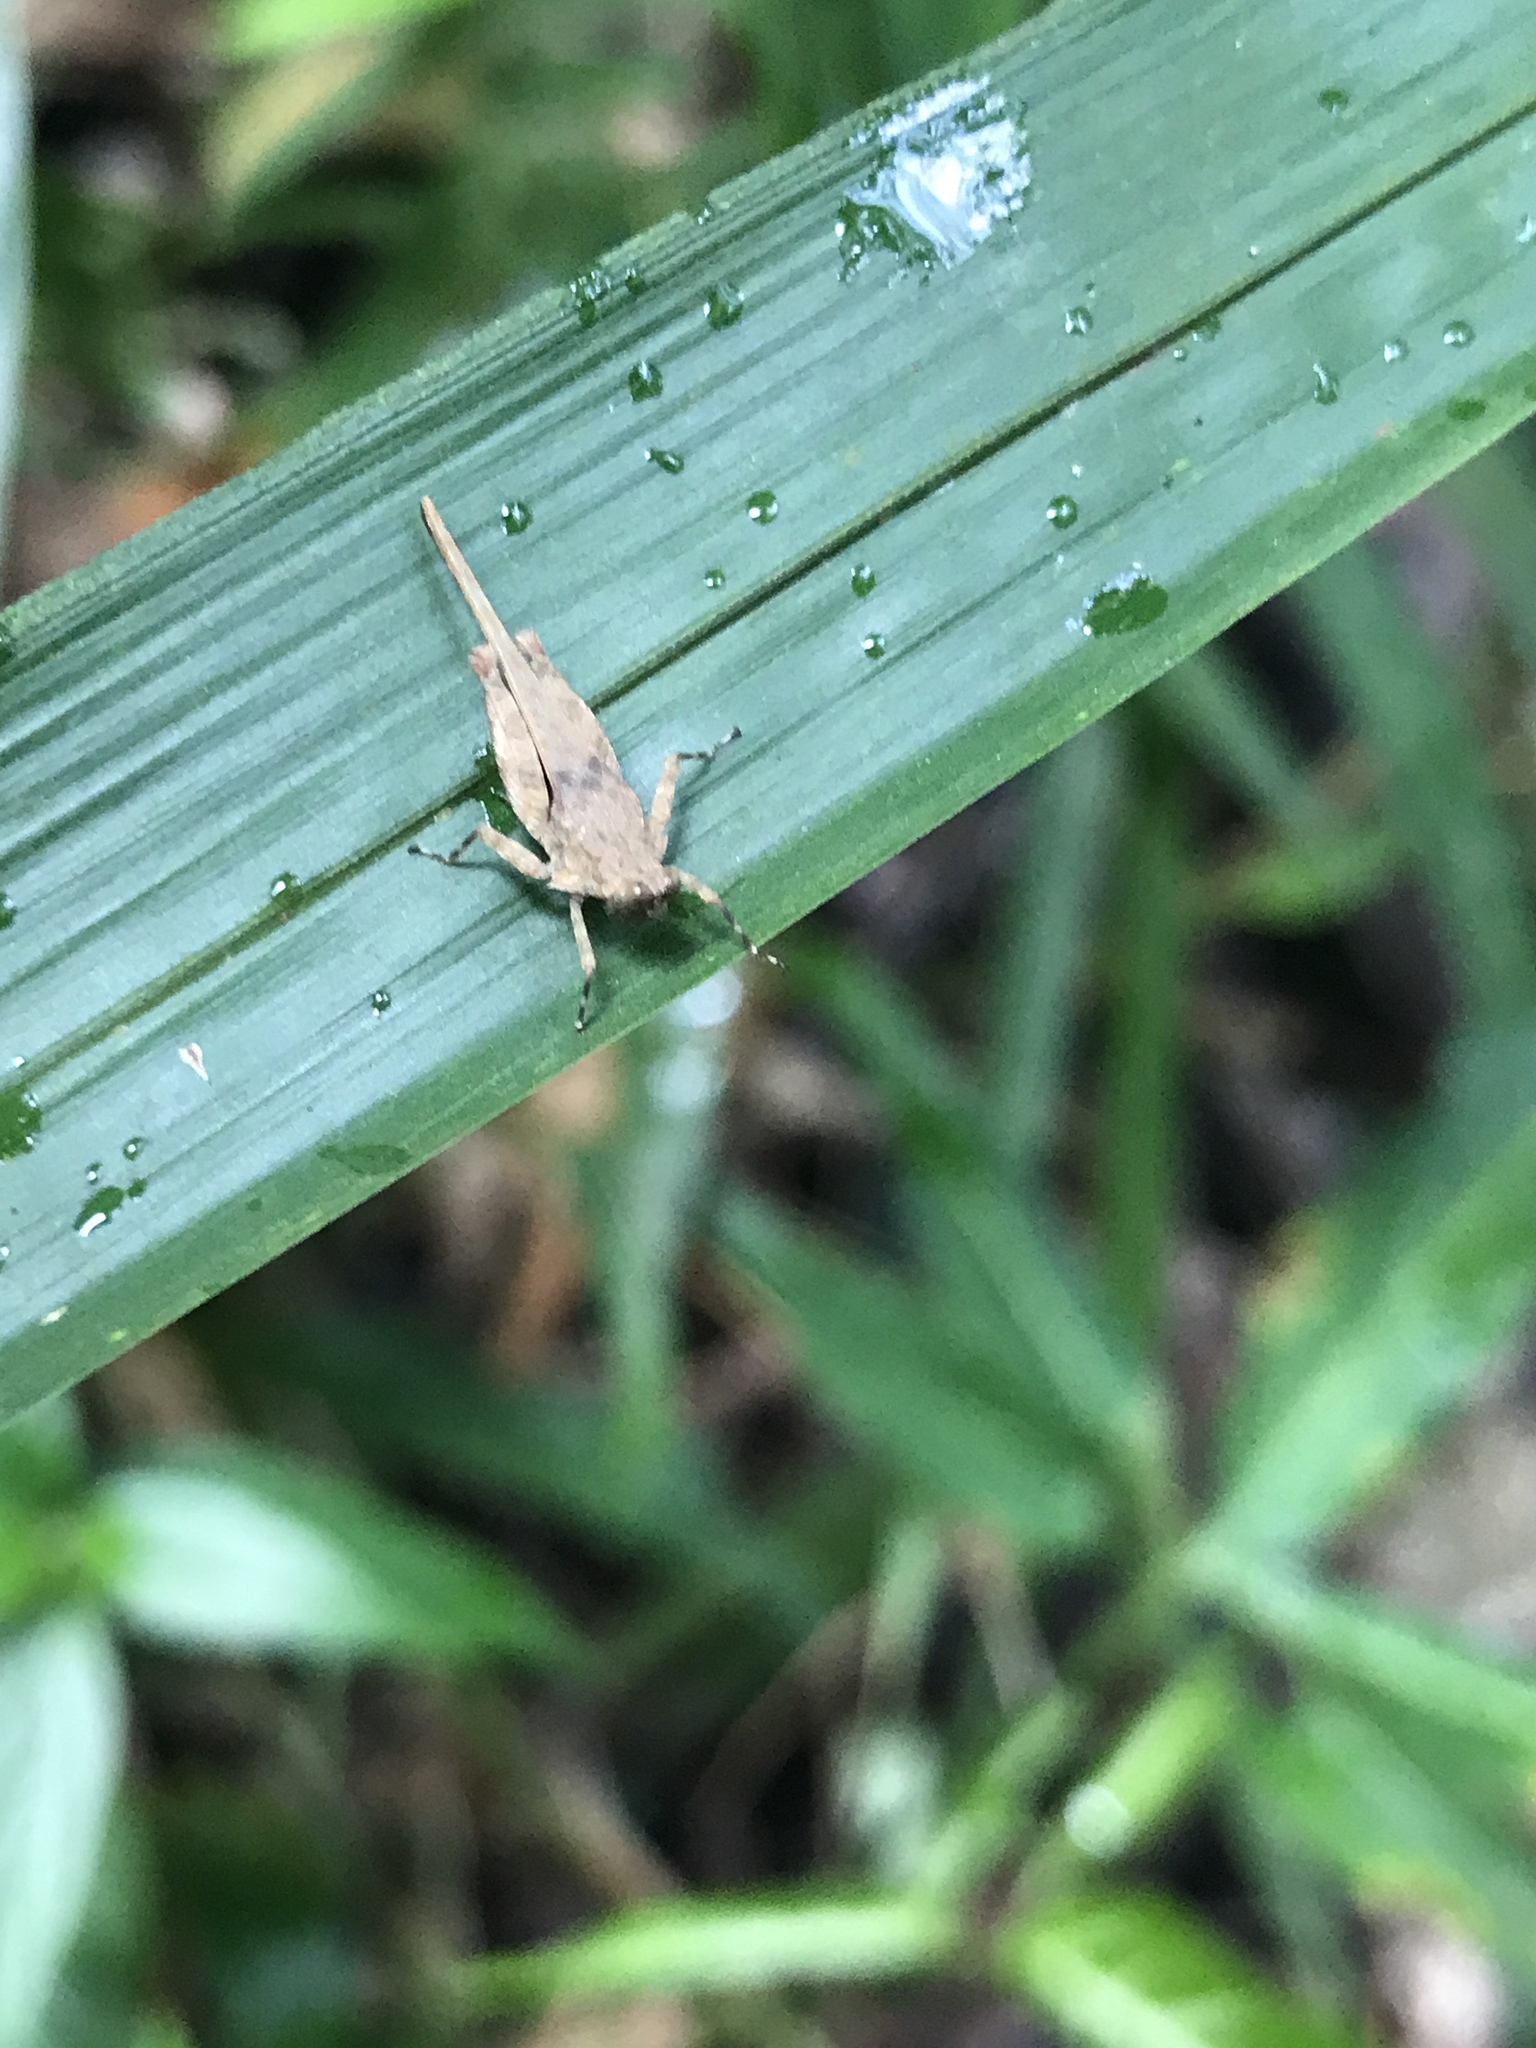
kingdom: Animalia
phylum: Arthropoda
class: Insecta
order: Orthoptera
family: Tetrigidae
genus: Aryalidonta
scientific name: Aryalidonta
